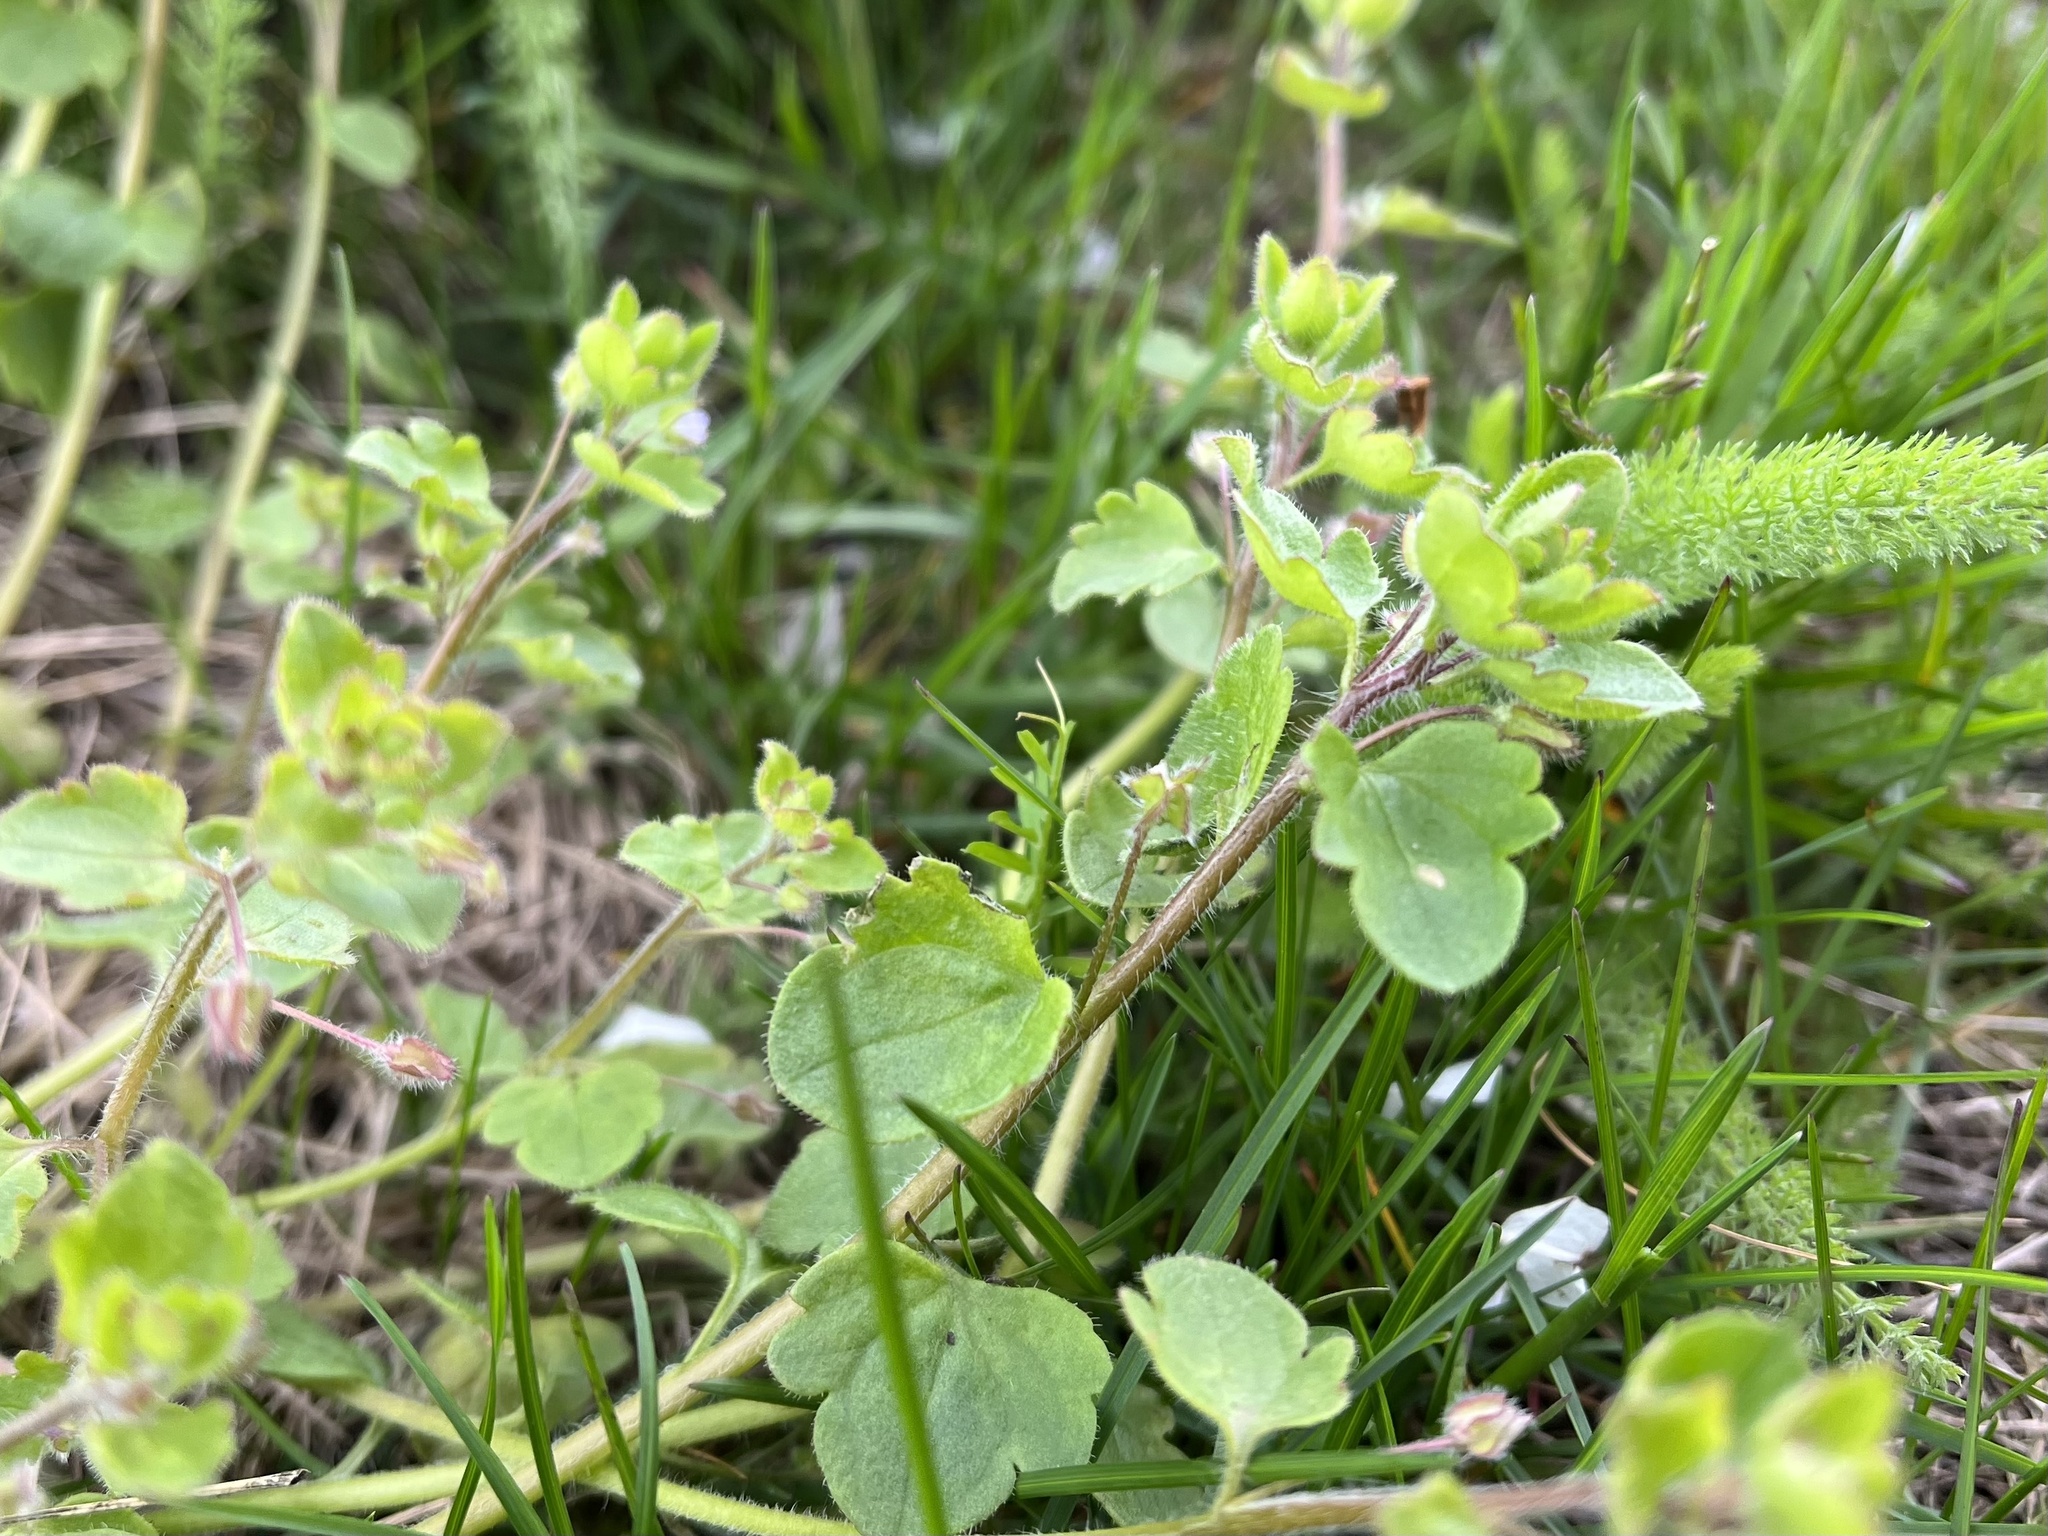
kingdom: Plantae
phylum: Tracheophyta
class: Magnoliopsida
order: Lamiales
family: Plantaginaceae
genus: Veronica
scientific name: Veronica sublobata
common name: False ivy-leaved speedwell
